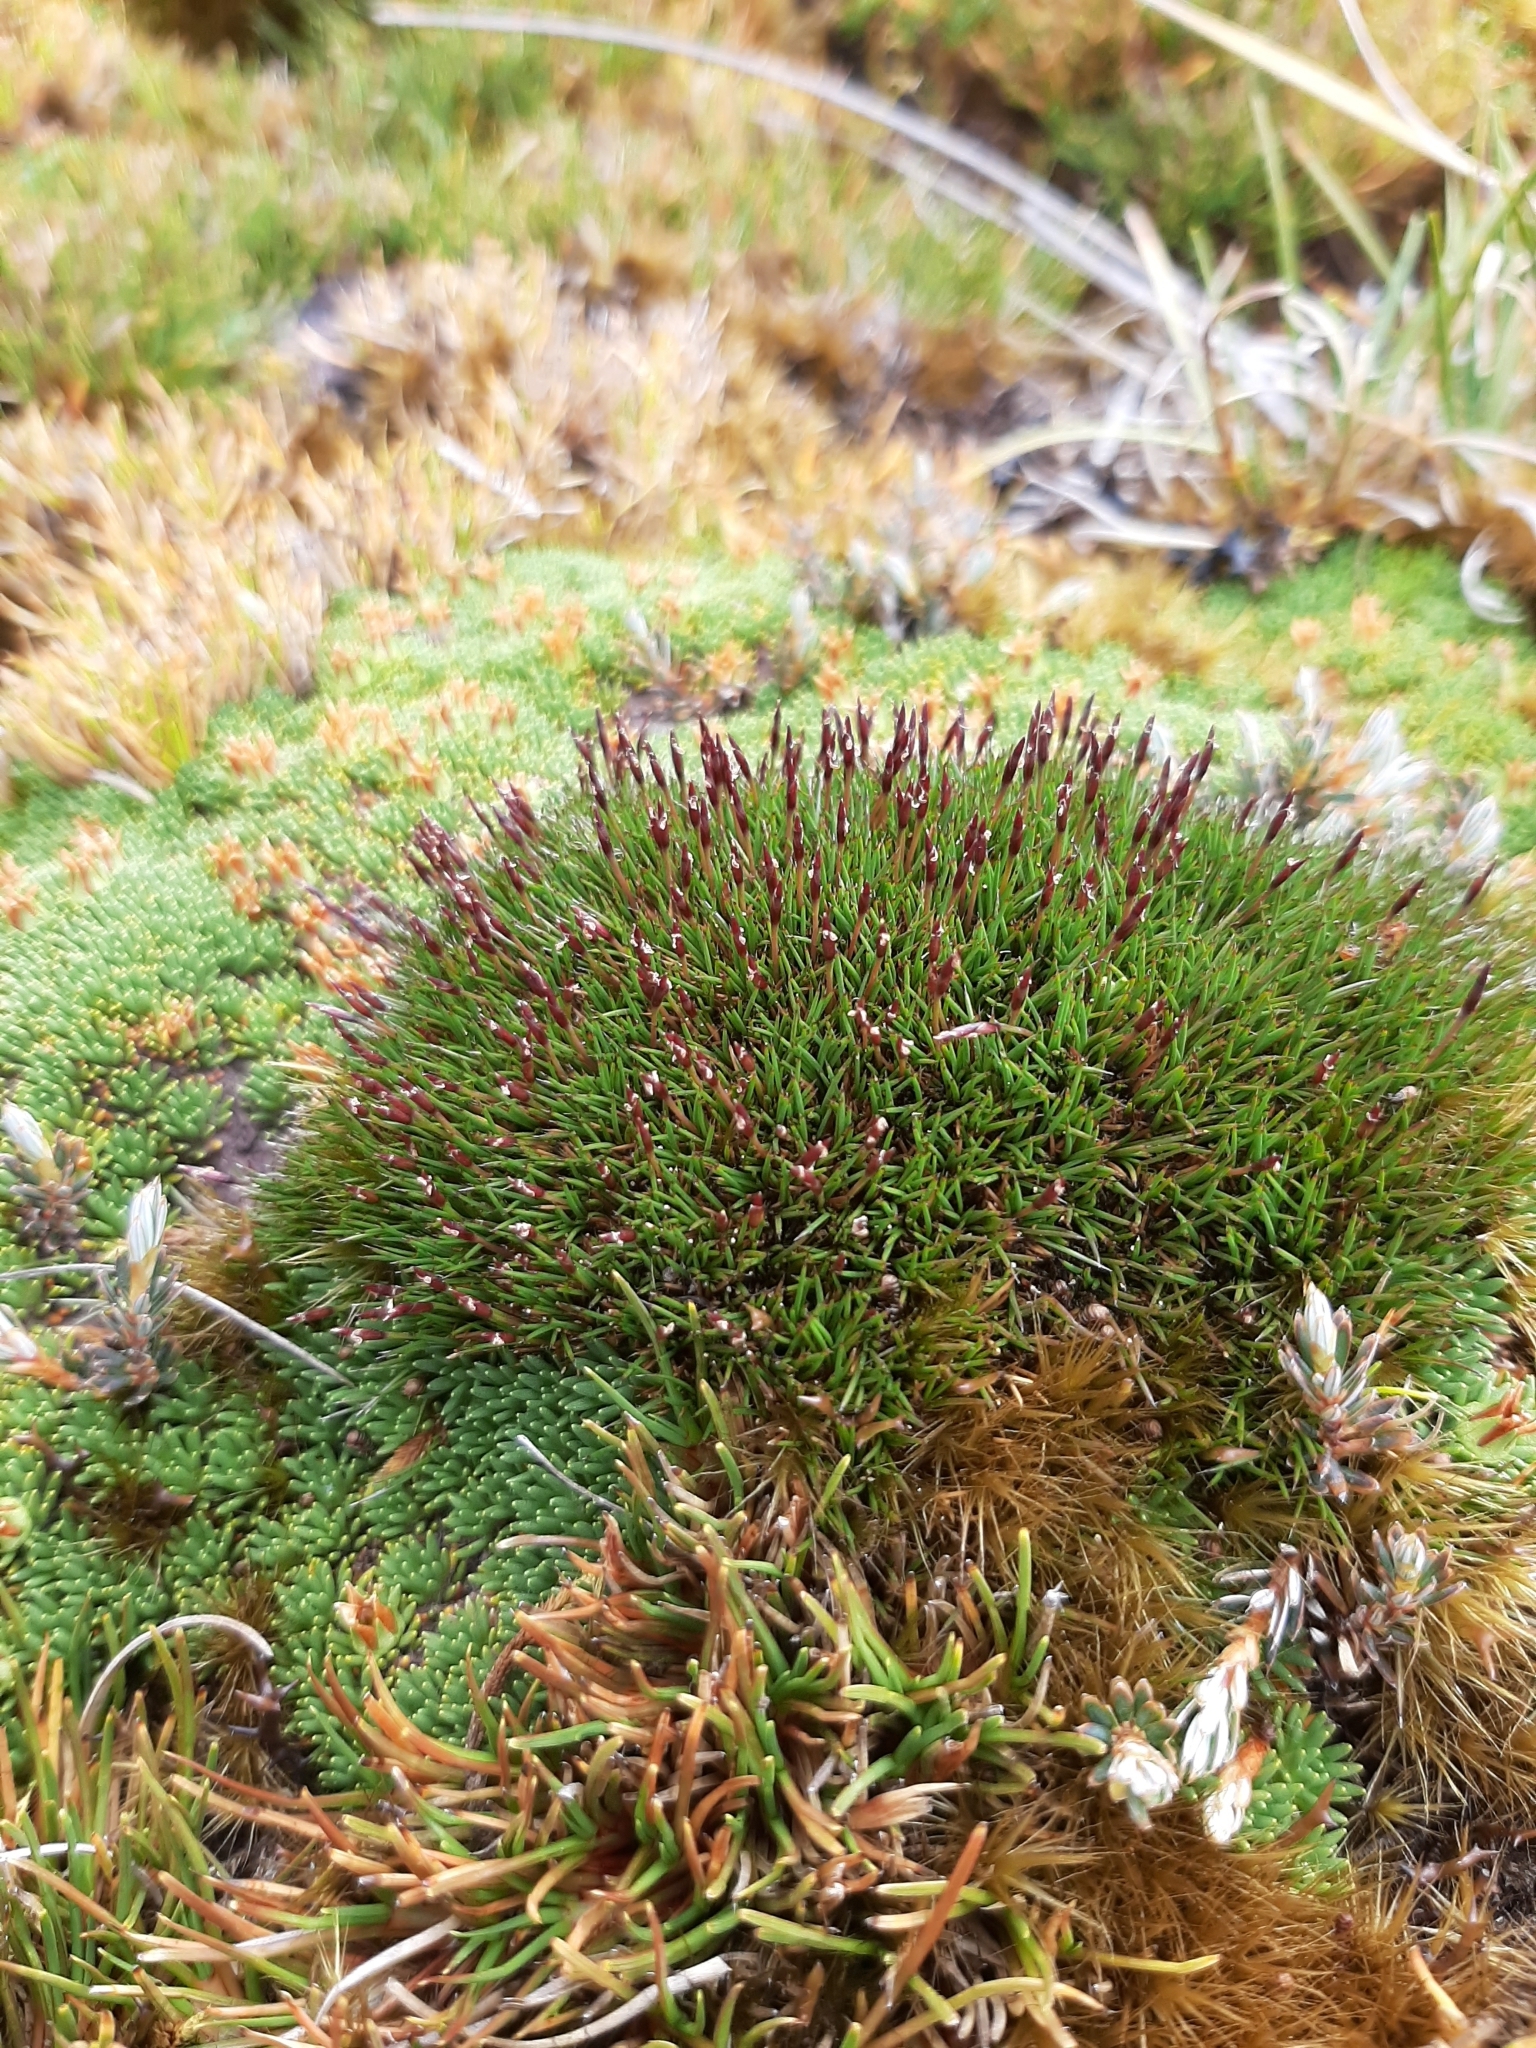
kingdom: Plantae
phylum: Tracheophyta
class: Liliopsida
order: Poales
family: Restionaceae
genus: Gaimardia
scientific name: Gaimardia setacea
